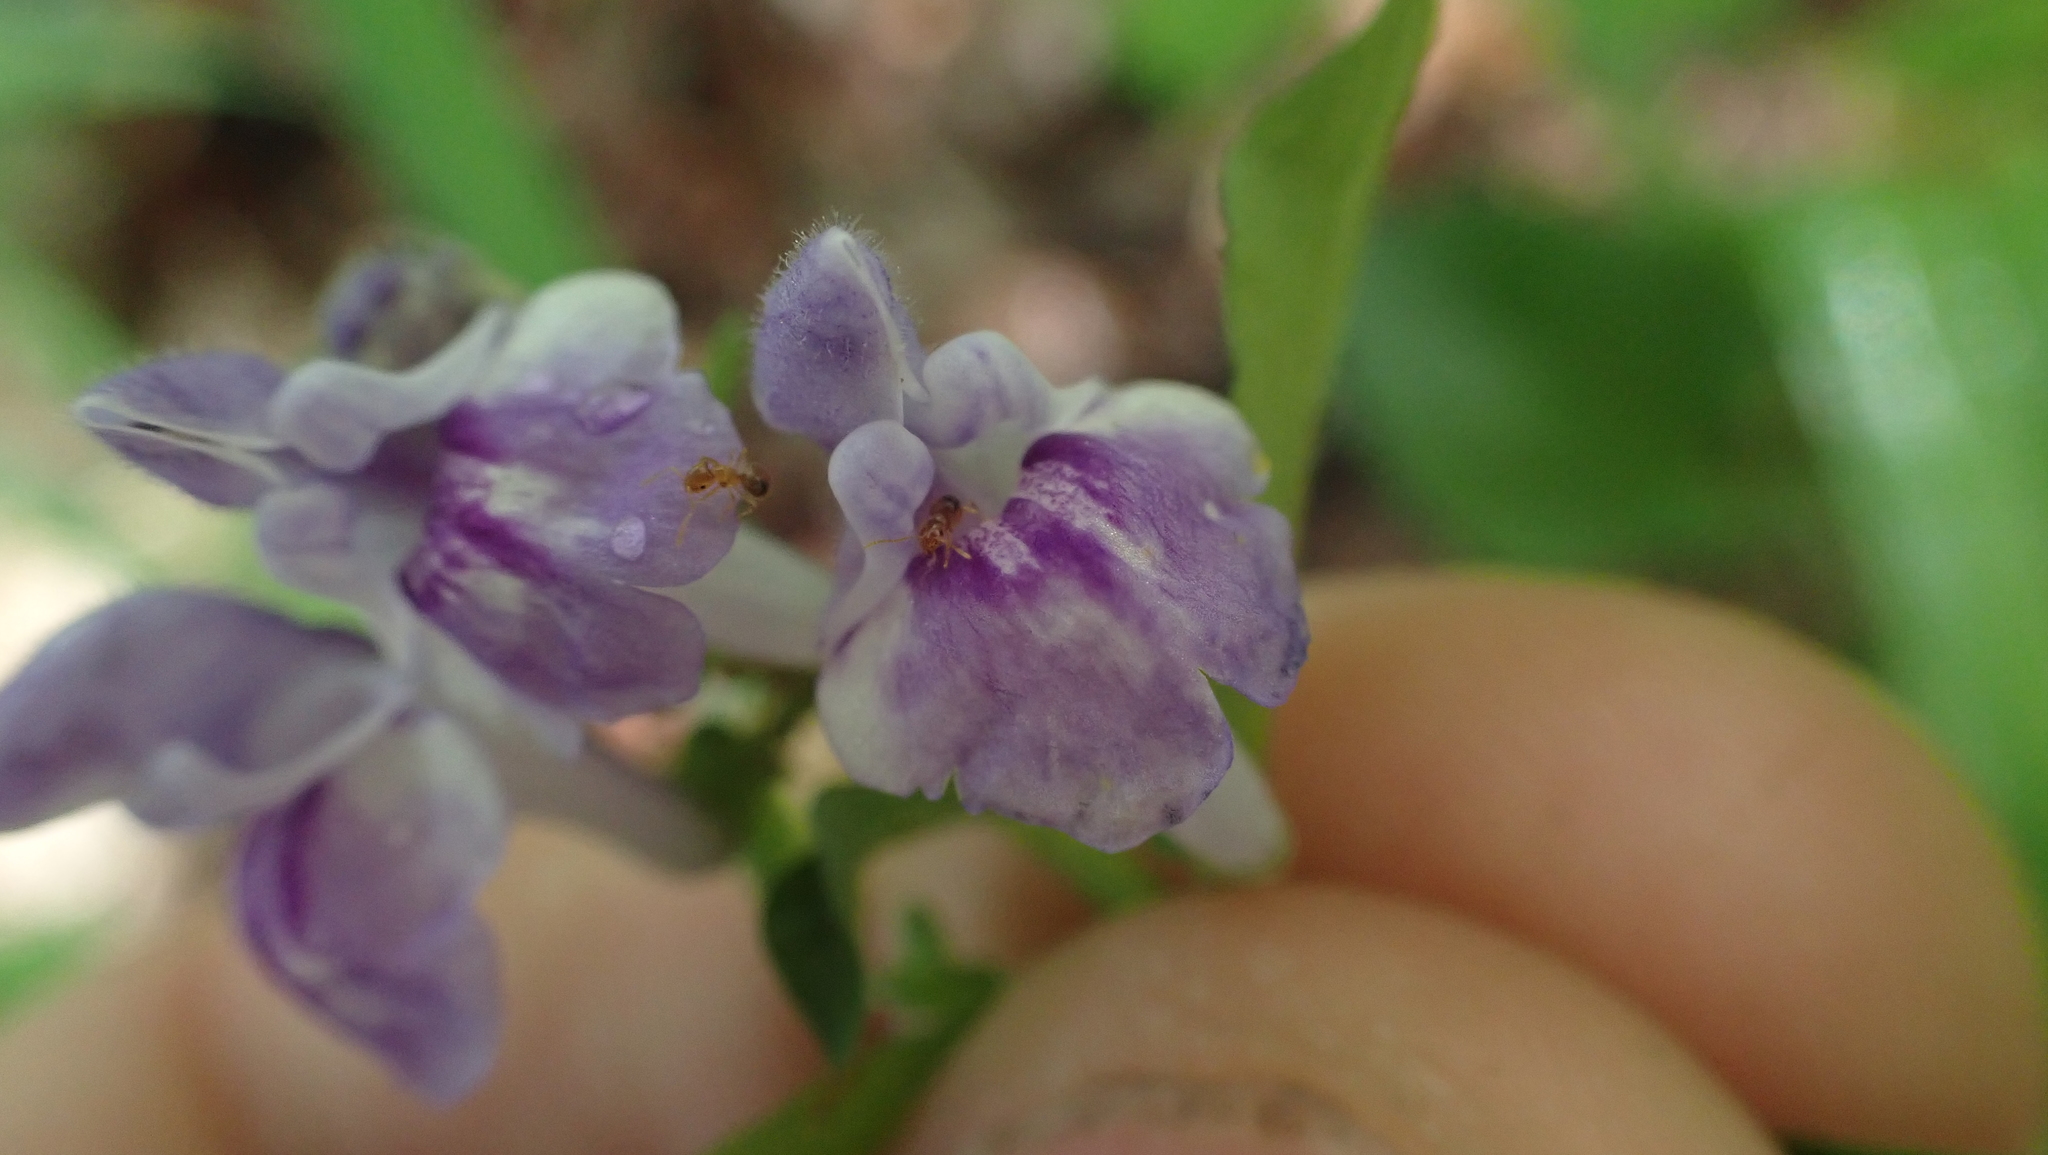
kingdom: Animalia
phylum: Arthropoda
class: Insecta
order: Hymenoptera
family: Formicidae
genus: Brachymyrmex
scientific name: Brachymyrmex depilis
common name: Hairless rover ant
